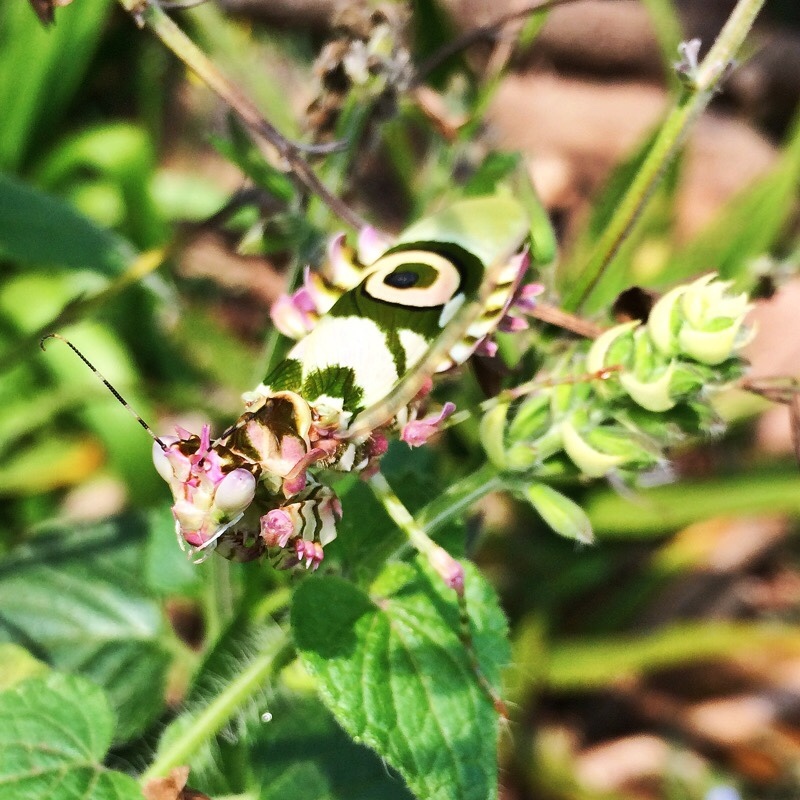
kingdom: Animalia
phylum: Arthropoda
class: Insecta
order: Mantodea
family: Hymenopodidae
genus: Pseudocreobotra
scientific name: Pseudocreobotra wahlbergi
